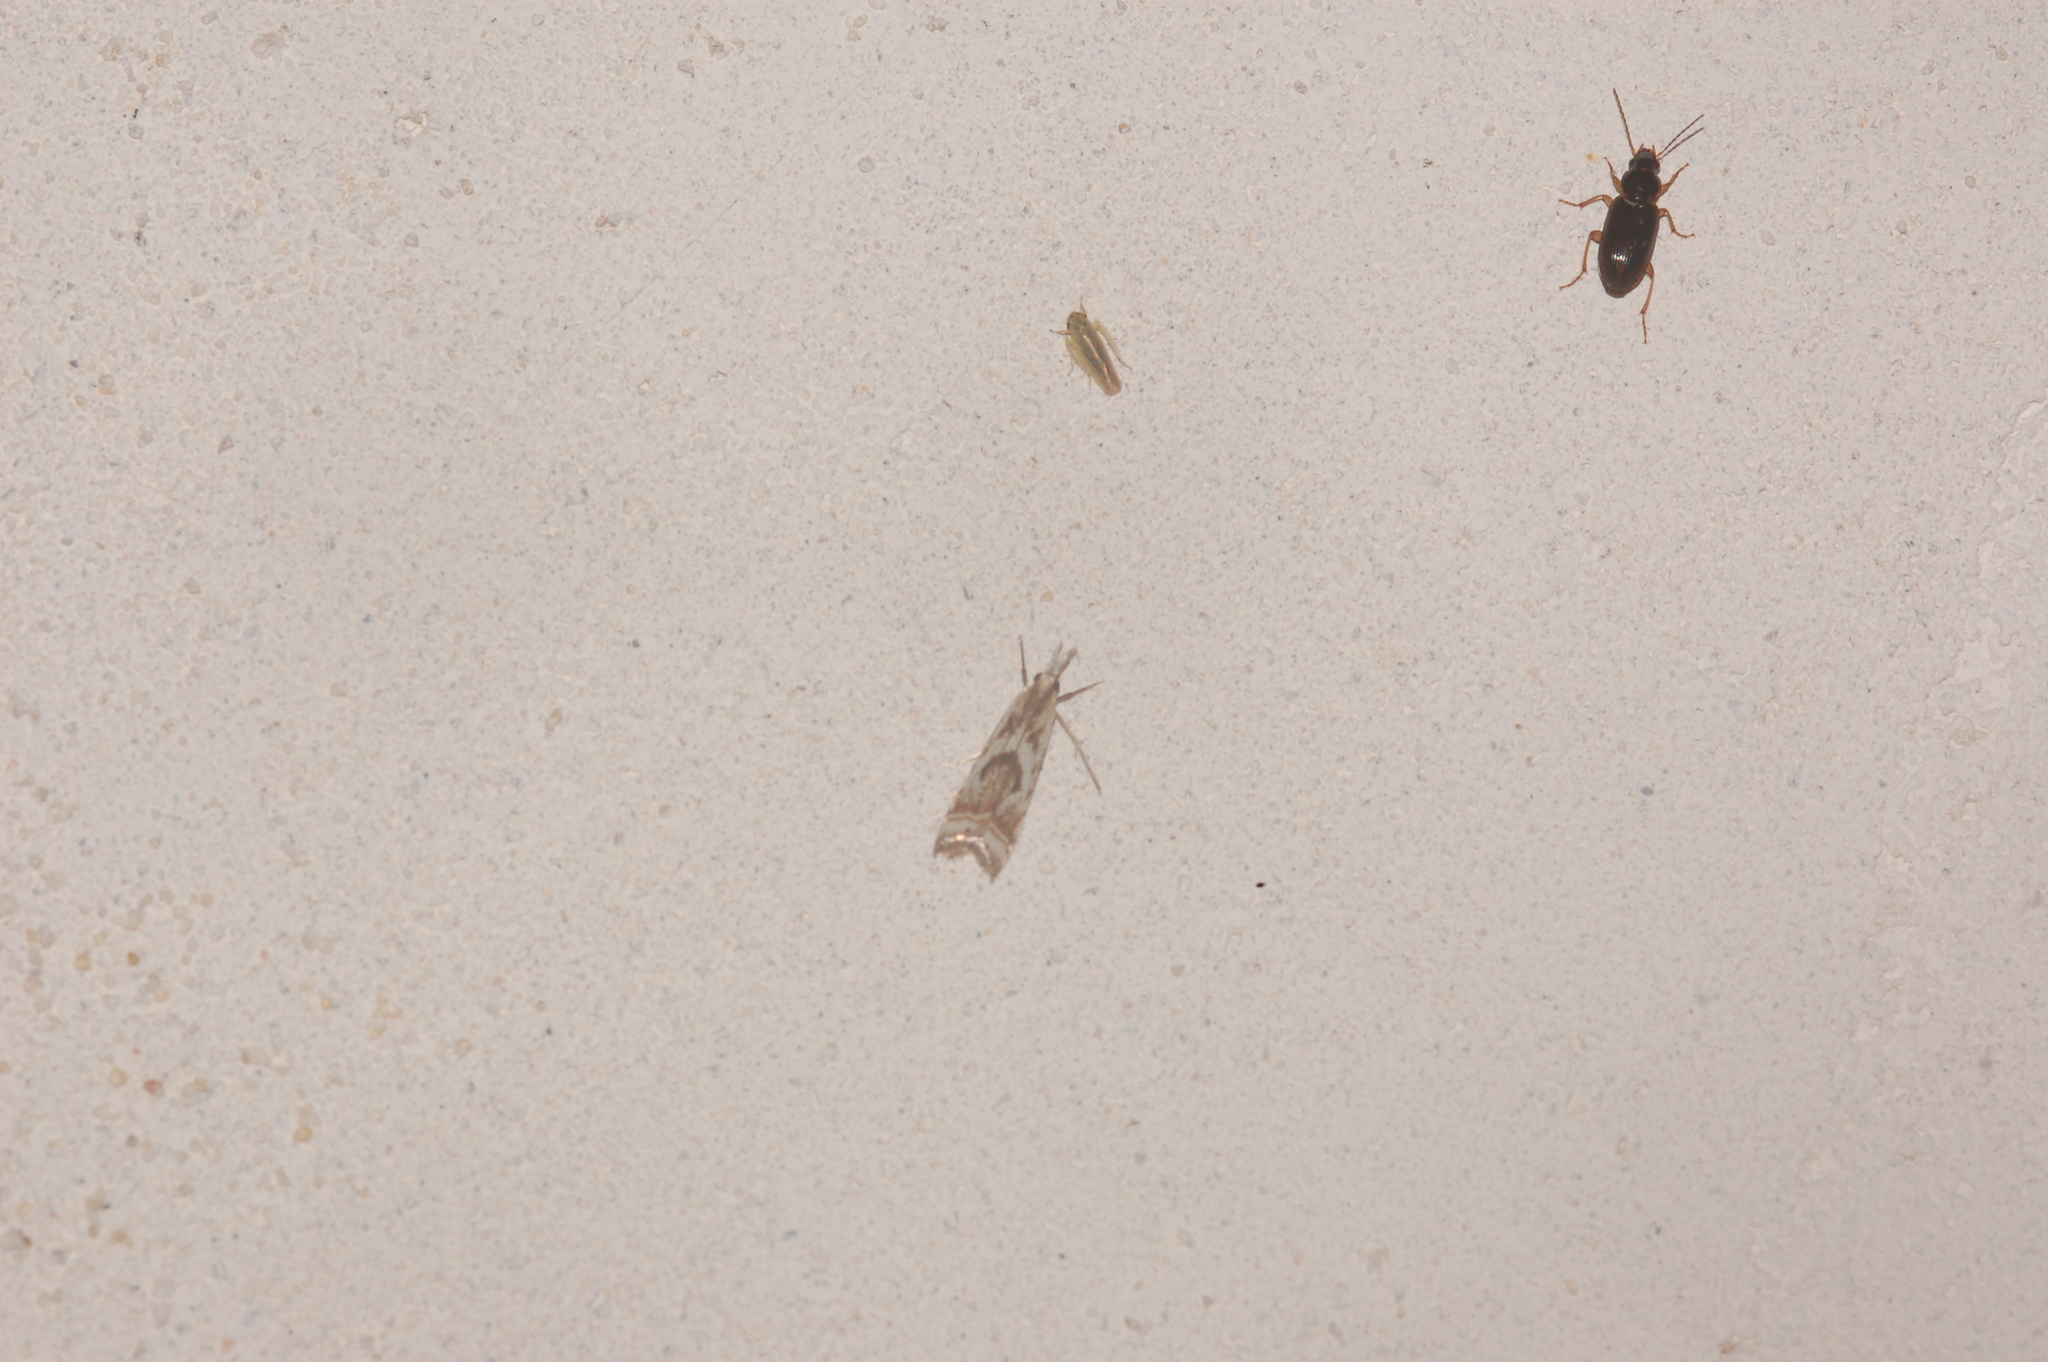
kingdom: Animalia
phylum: Arthropoda
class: Insecta
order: Lepidoptera
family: Crambidae
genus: Microcrambus
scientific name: Microcrambus elegans
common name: Elegant grass-veneer
